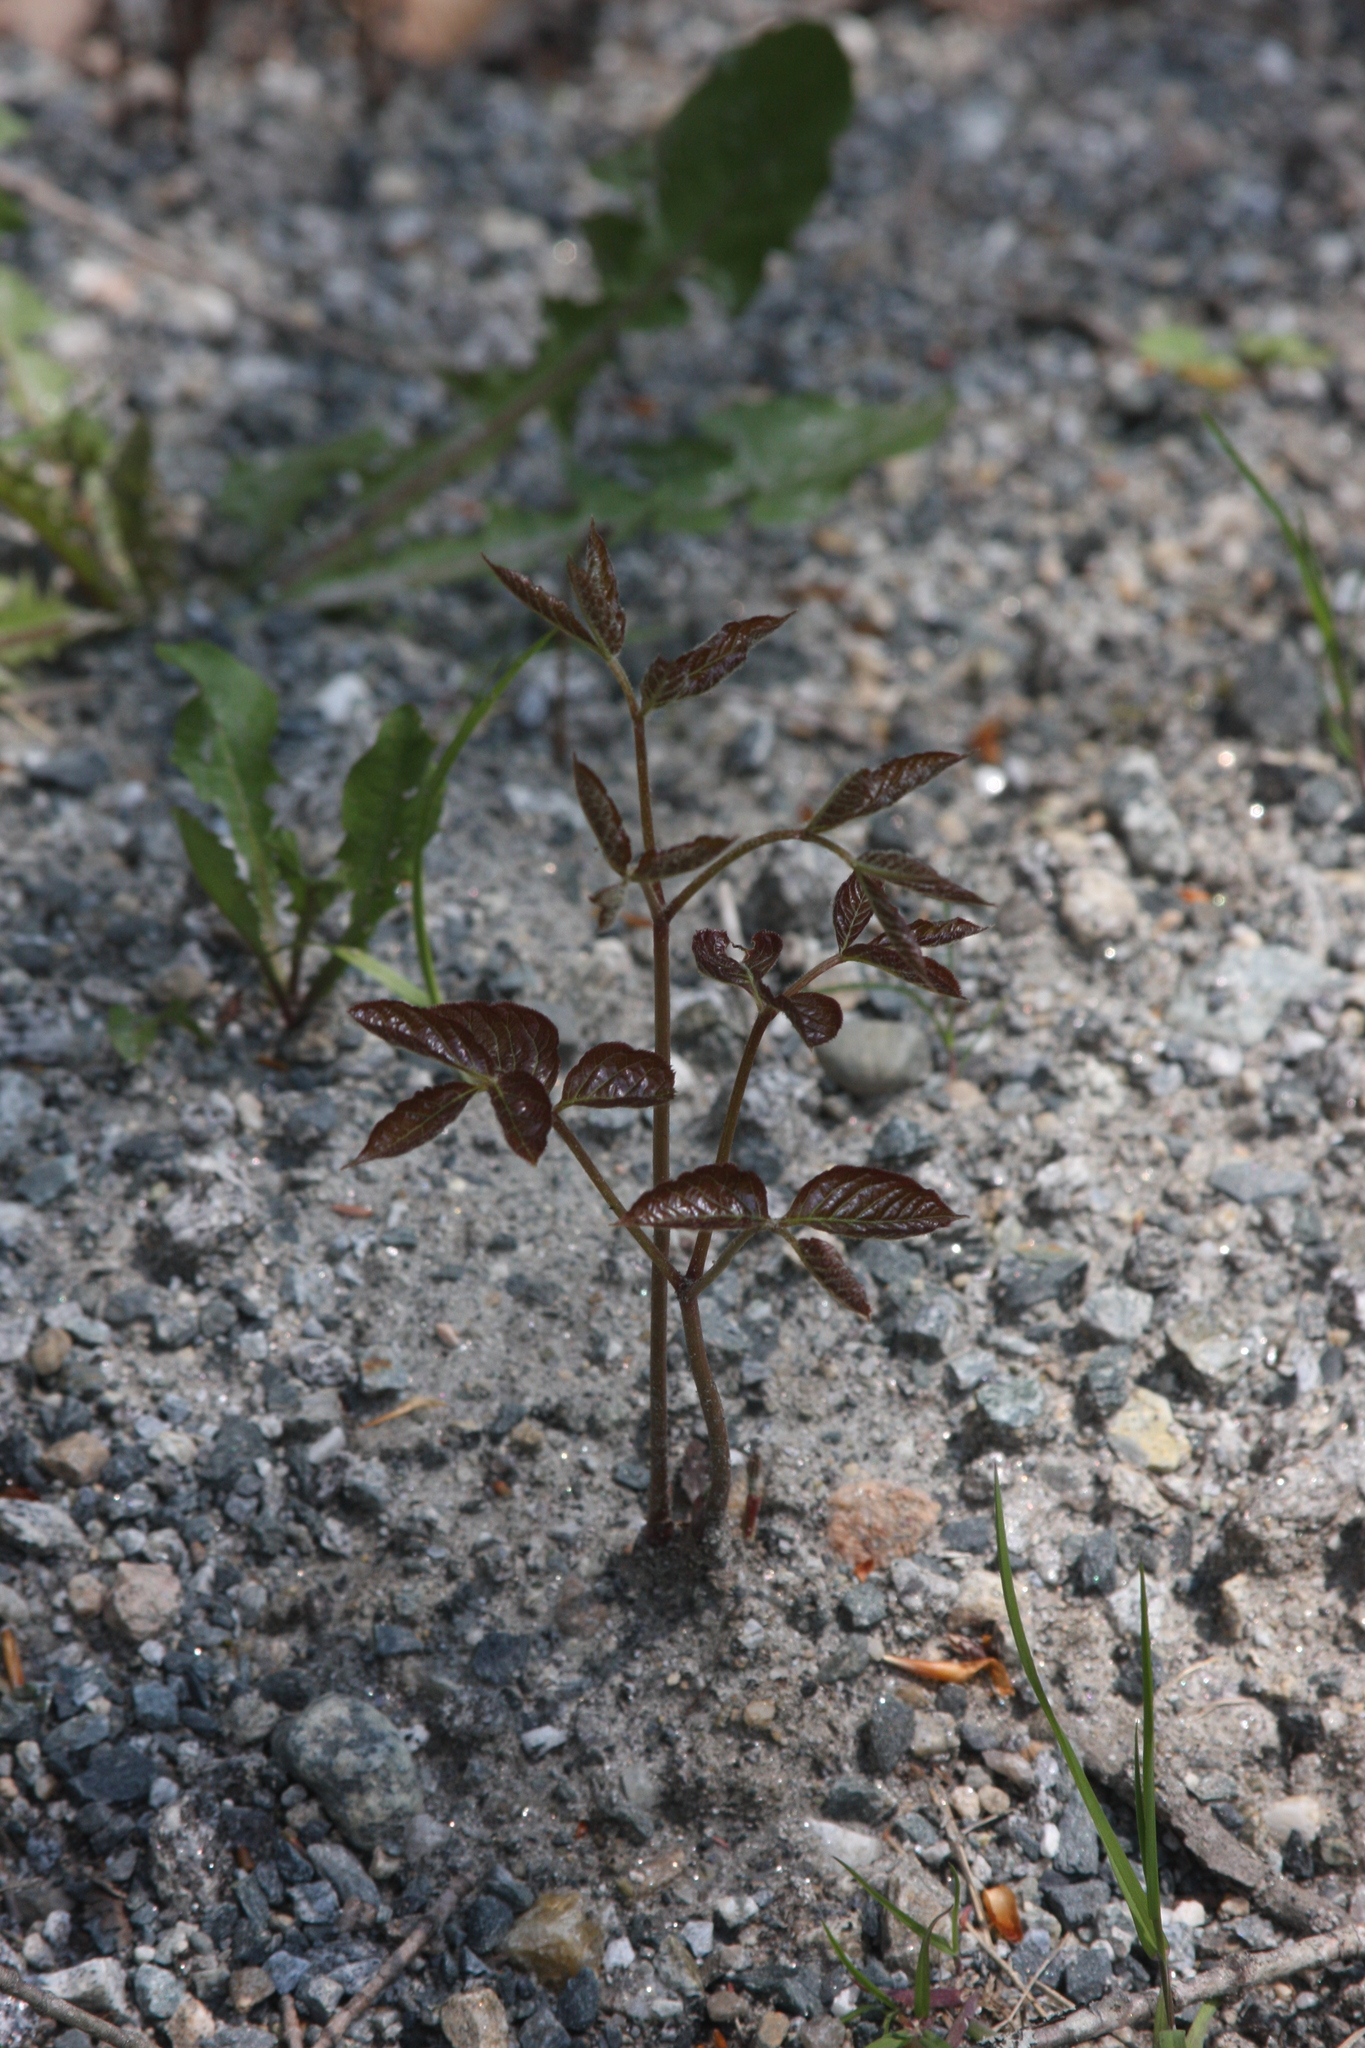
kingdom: Plantae
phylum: Tracheophyta
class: Magnoliopsida
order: Apiales
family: Araliaceae
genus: Aralia
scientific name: Aralia nudicaulis
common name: Wild sarsaparilla
